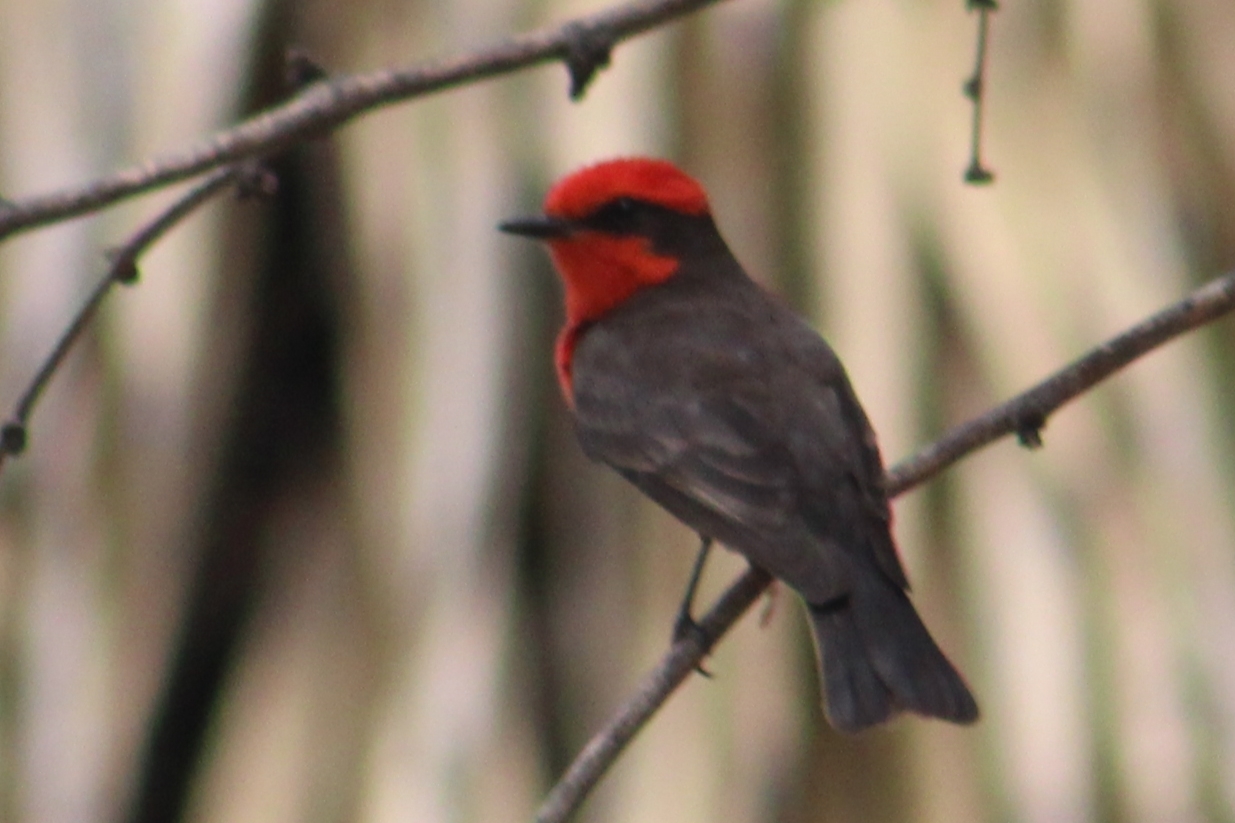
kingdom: Animalia
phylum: Chordata
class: Aves
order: Passeriformes
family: Tyrannidae
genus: Pyrocephalus
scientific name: Pyrocephalus rubinus
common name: Vermilion flycatcher
